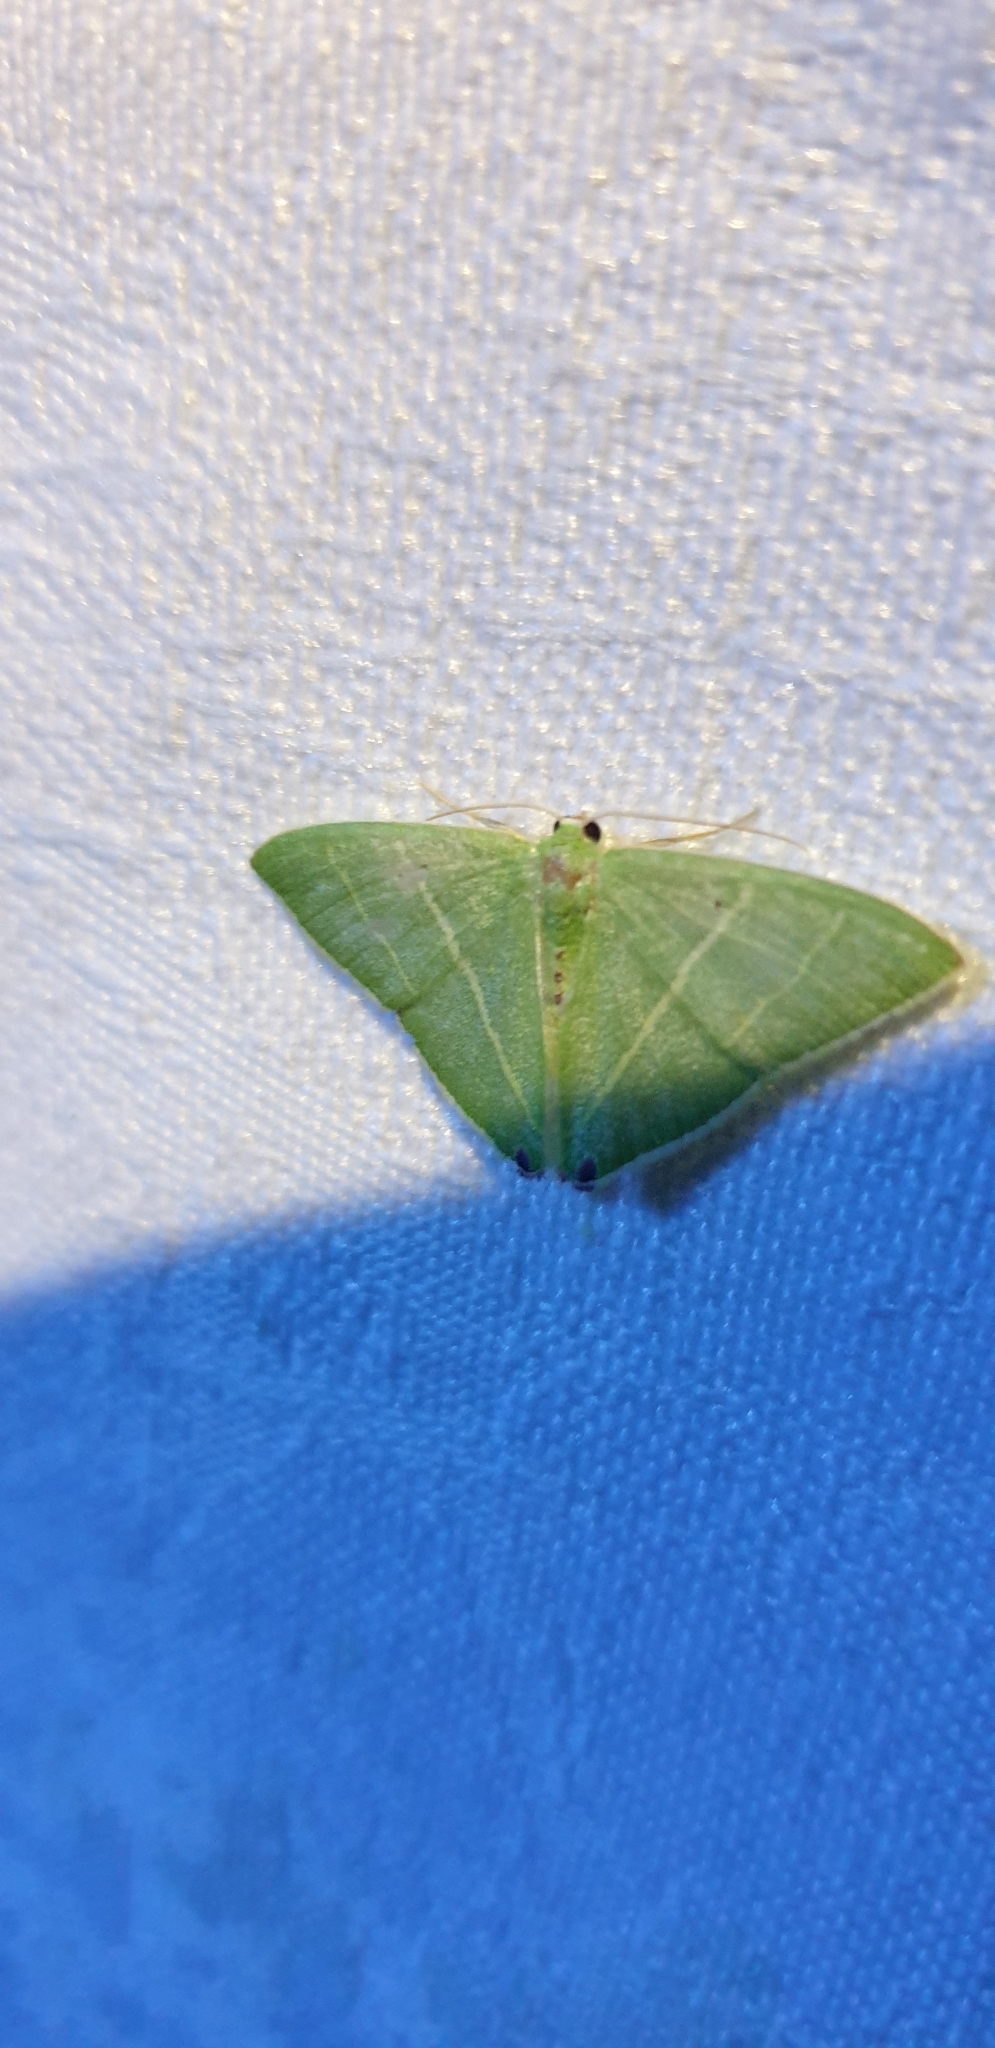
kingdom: Animalia
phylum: Arthropoda
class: Insecta
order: Lepidoptera
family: Geometridae
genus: Urolitha
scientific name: Urolitha bipunctifera
